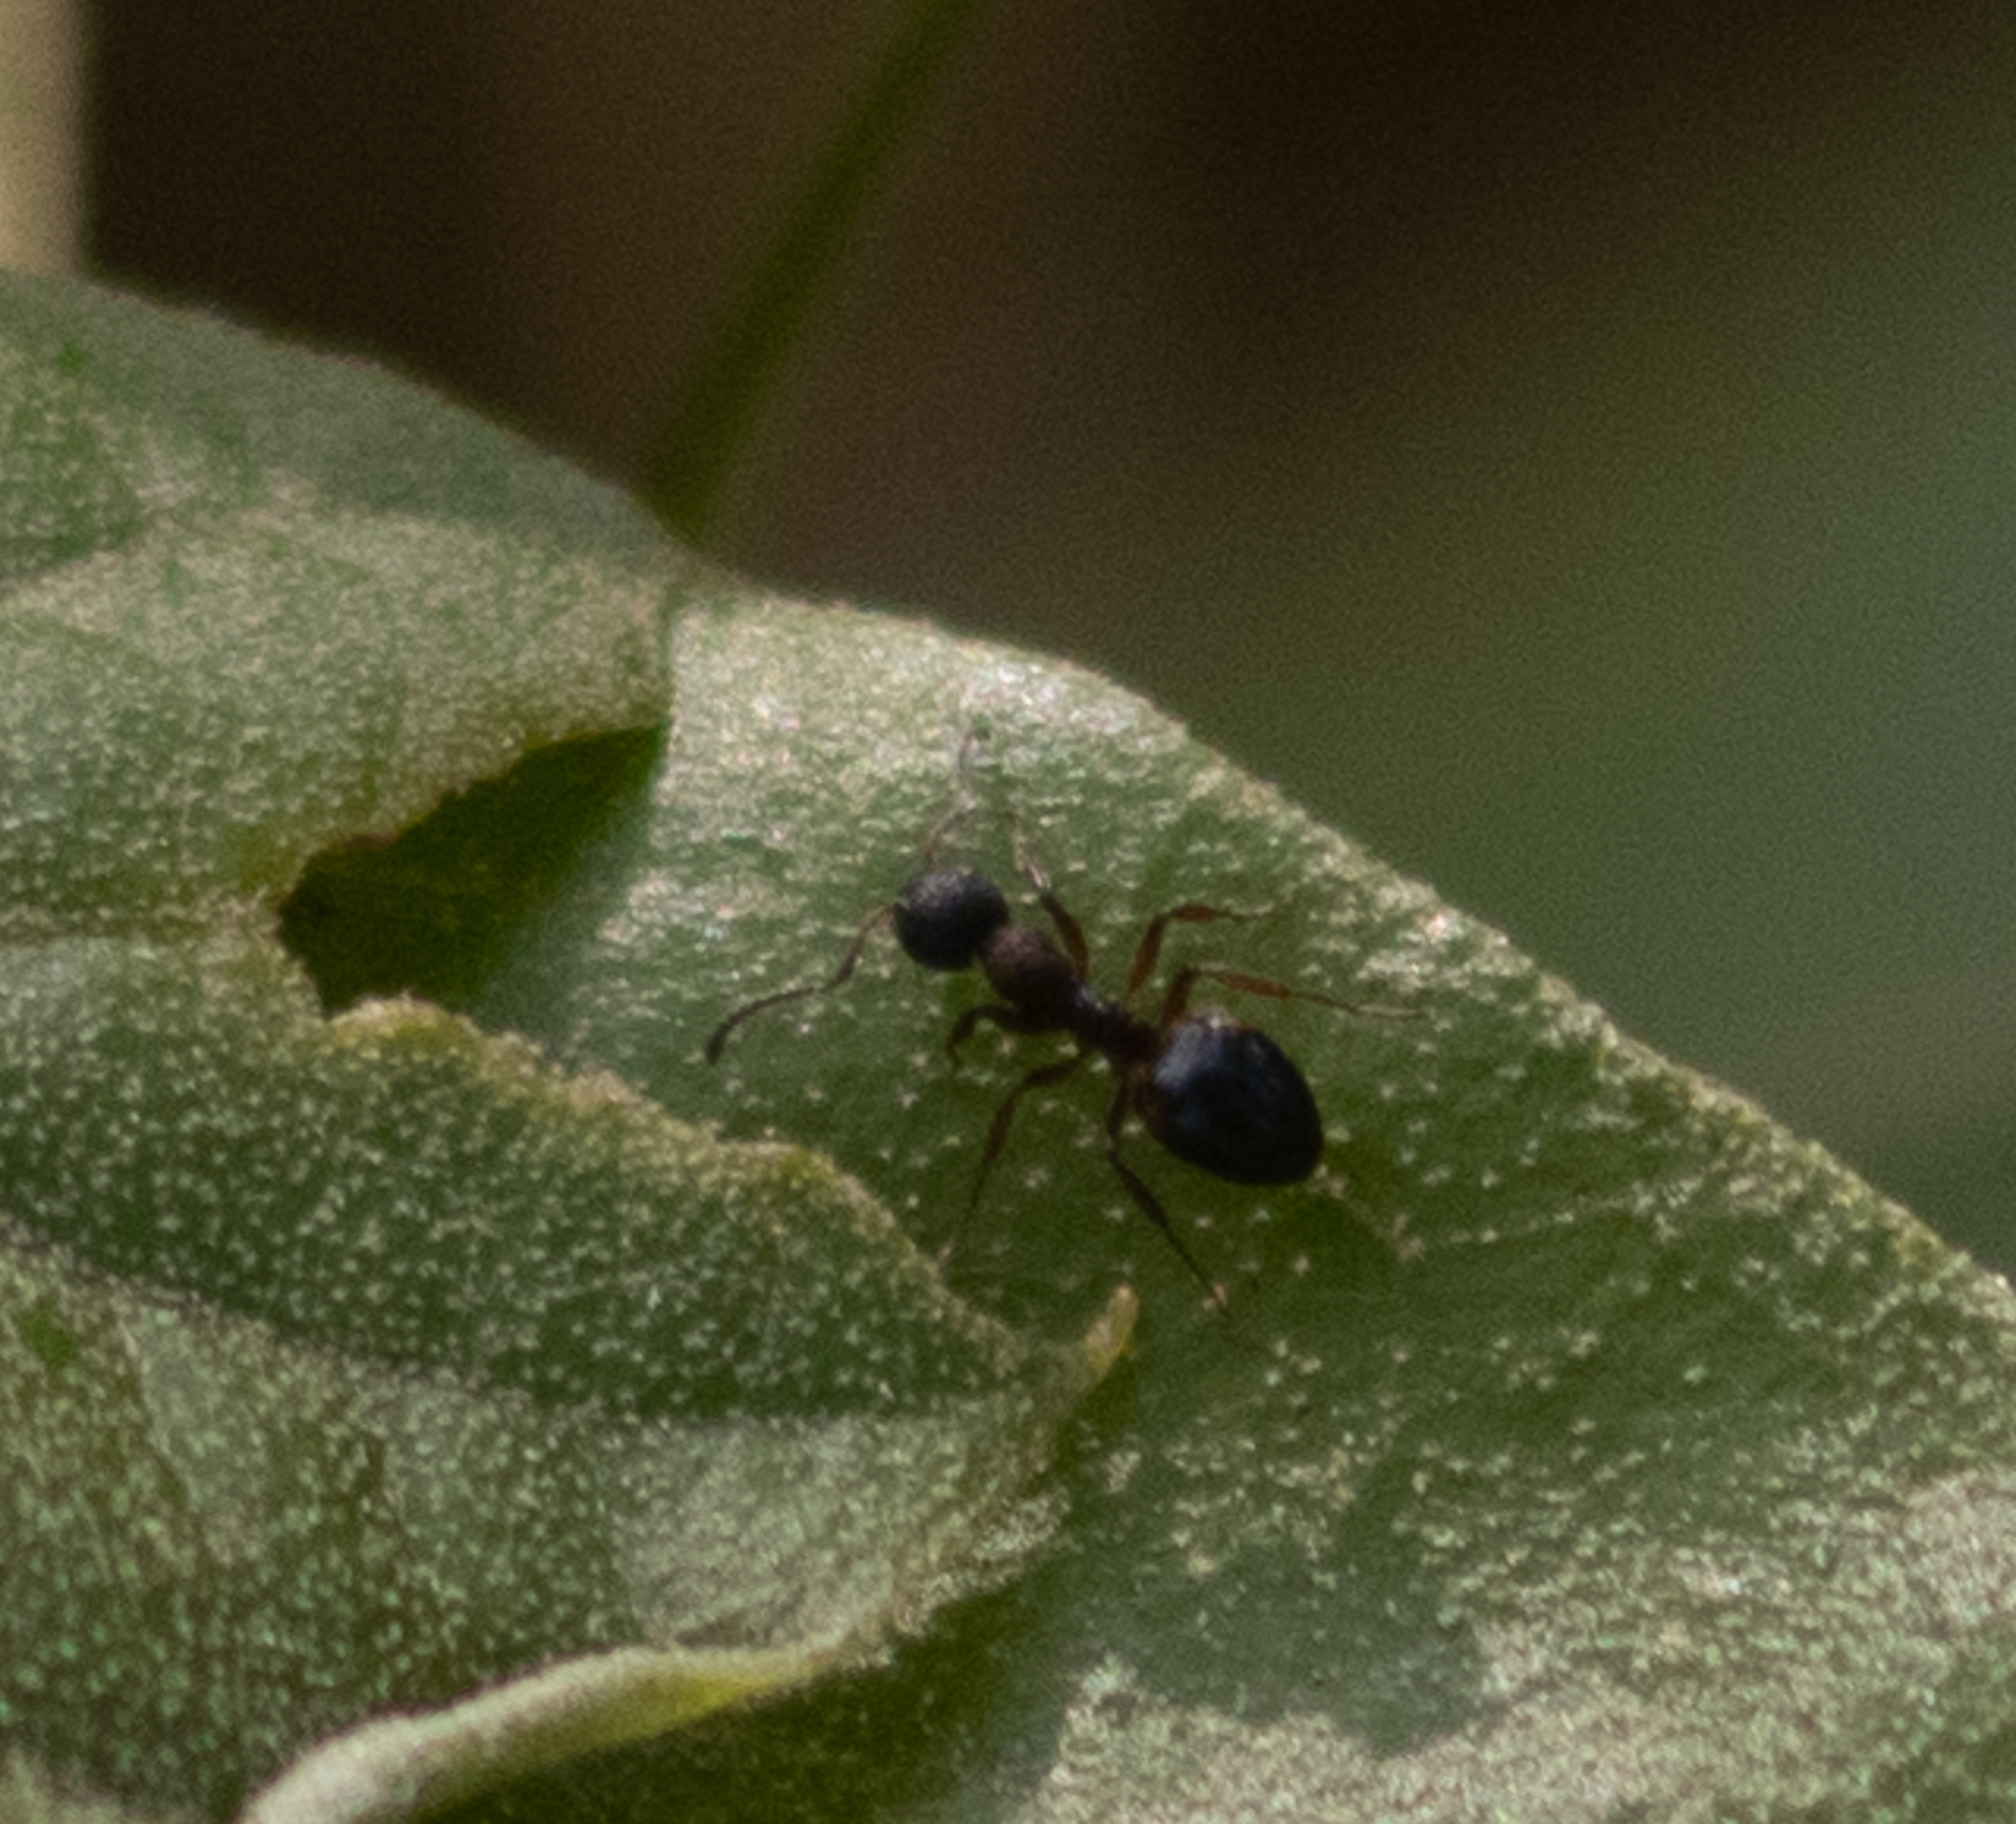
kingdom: Animalia
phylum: Arthropoda
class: Insecta
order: Hymenoptera
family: Formicidae
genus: Dolichoderus
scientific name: Dolichoderus plagiatus
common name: Mottled dolichoderus
